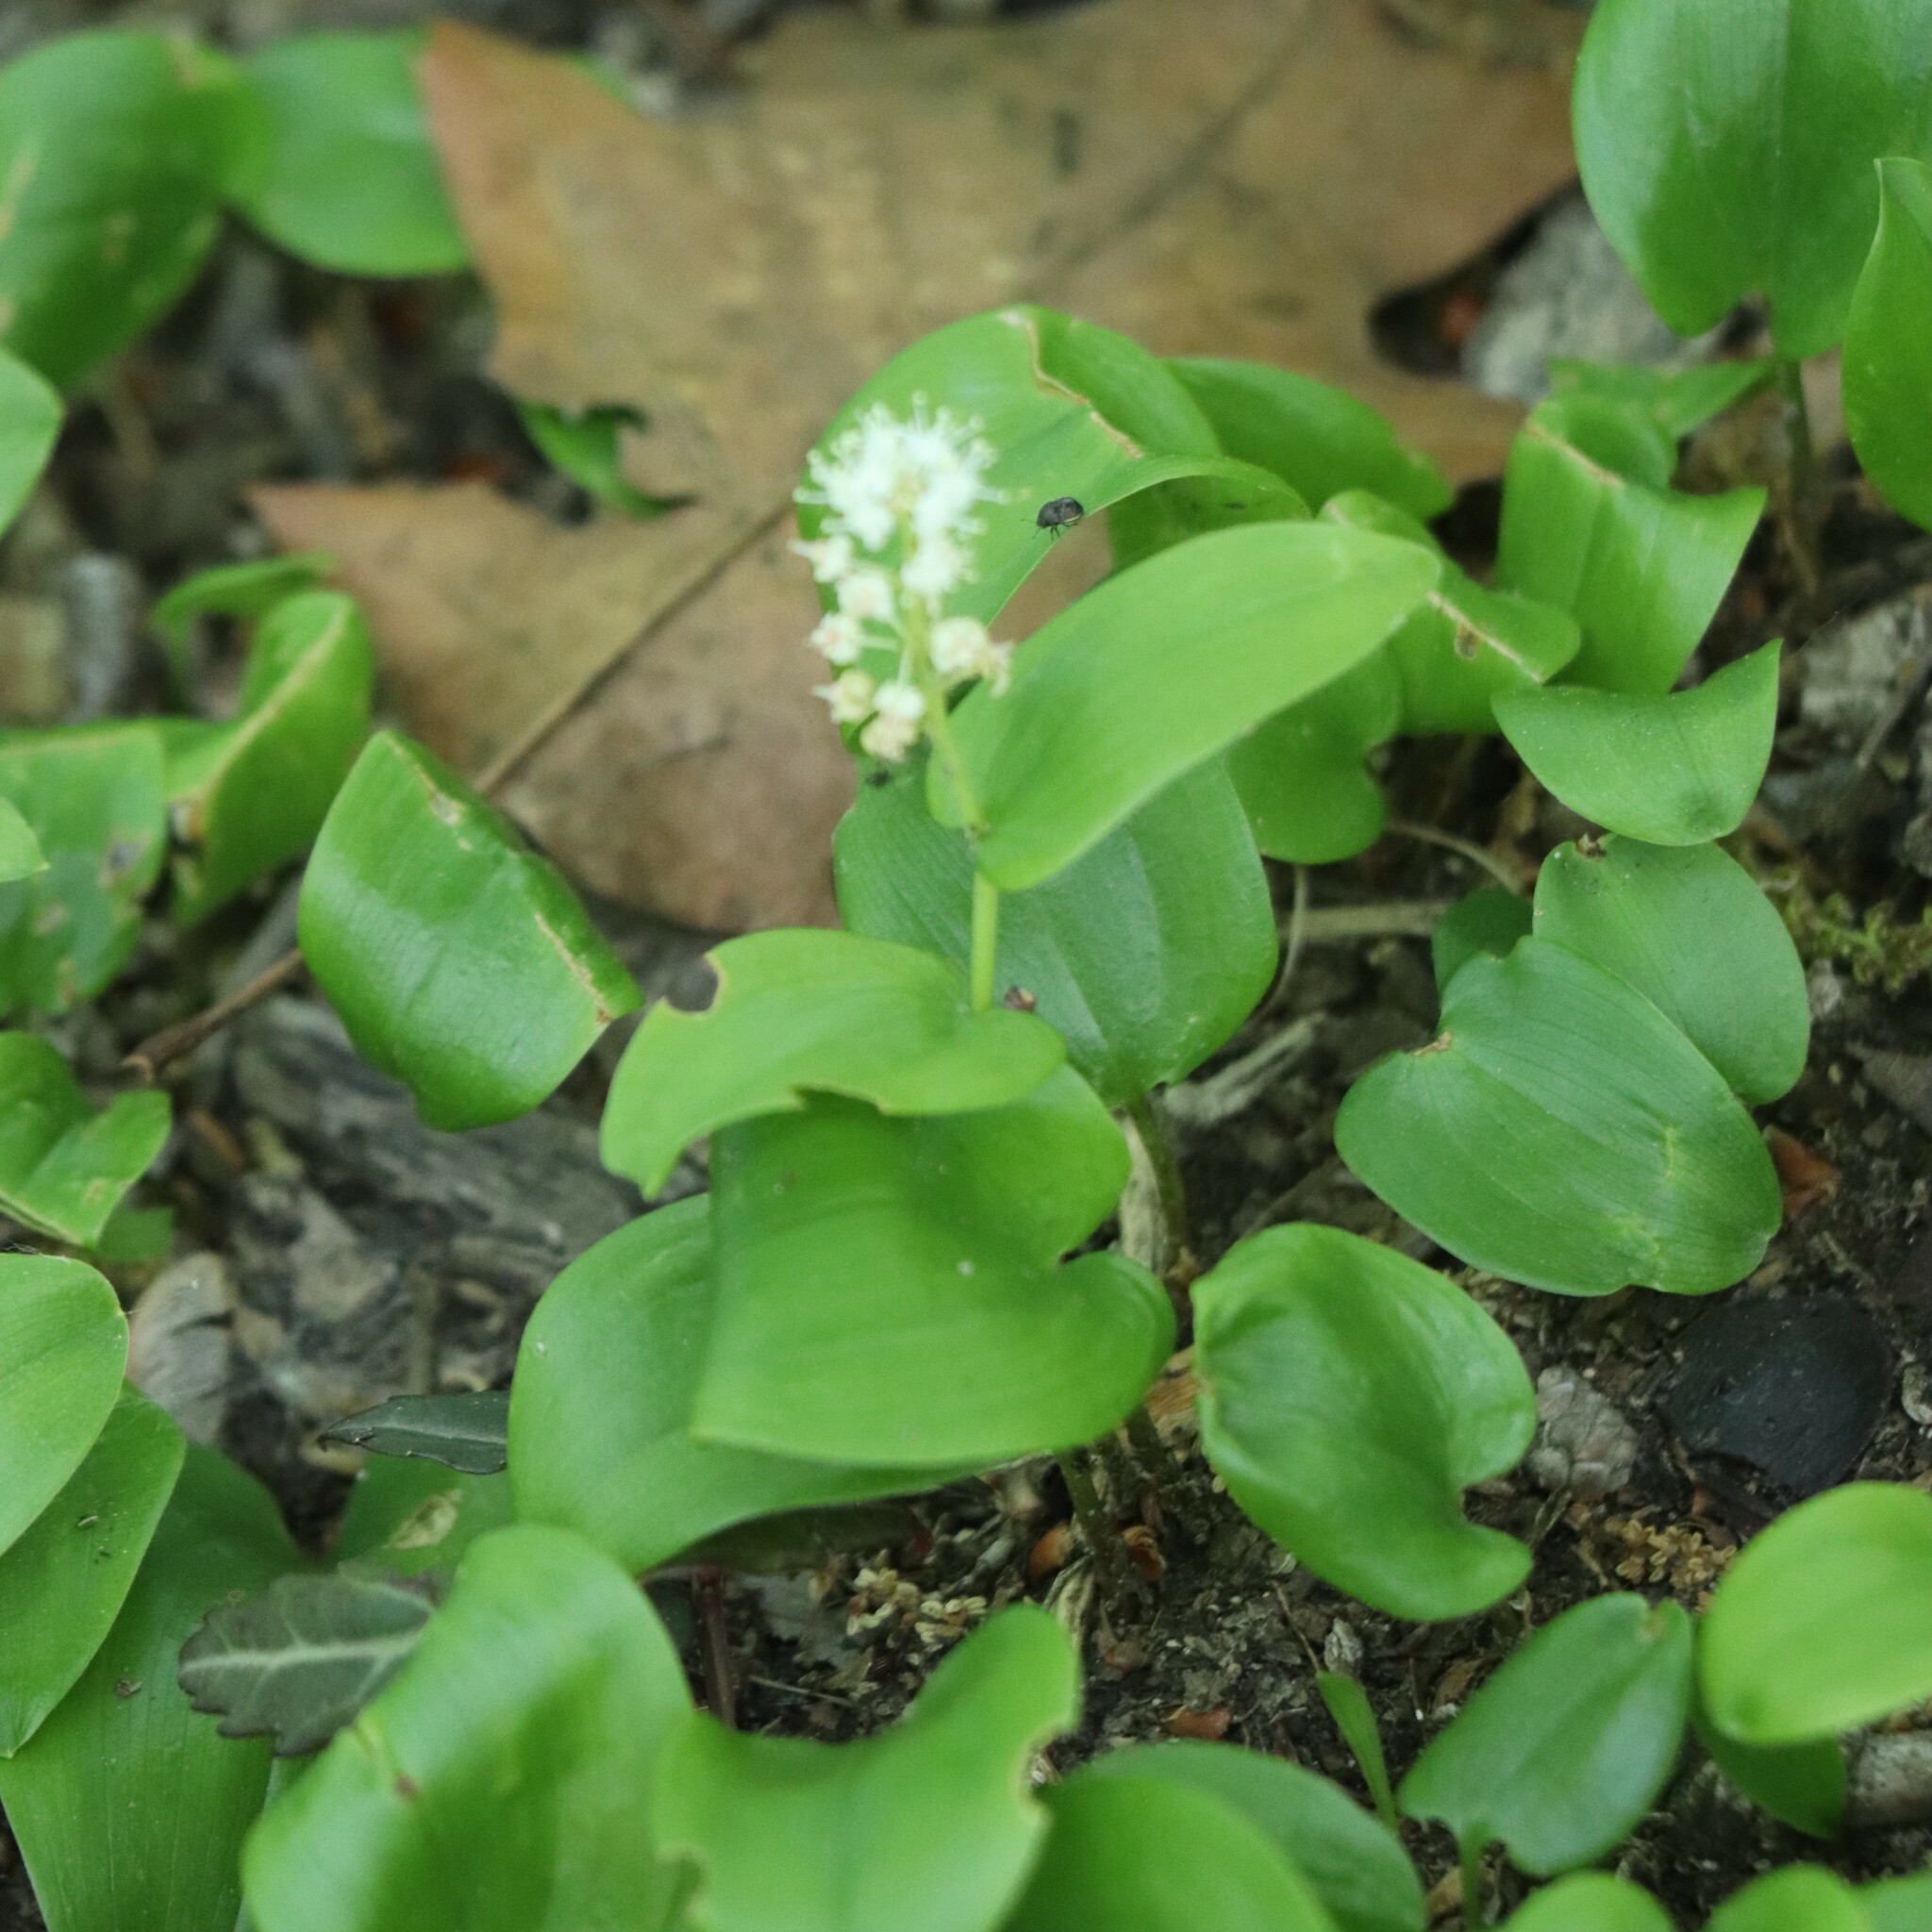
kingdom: Plantae
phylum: Tracheophyta
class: Liliopsida
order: Asparagales
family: Asparagaceae
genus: Maianthemum
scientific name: Maianthemum canadense
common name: False lily-of-the-valley
